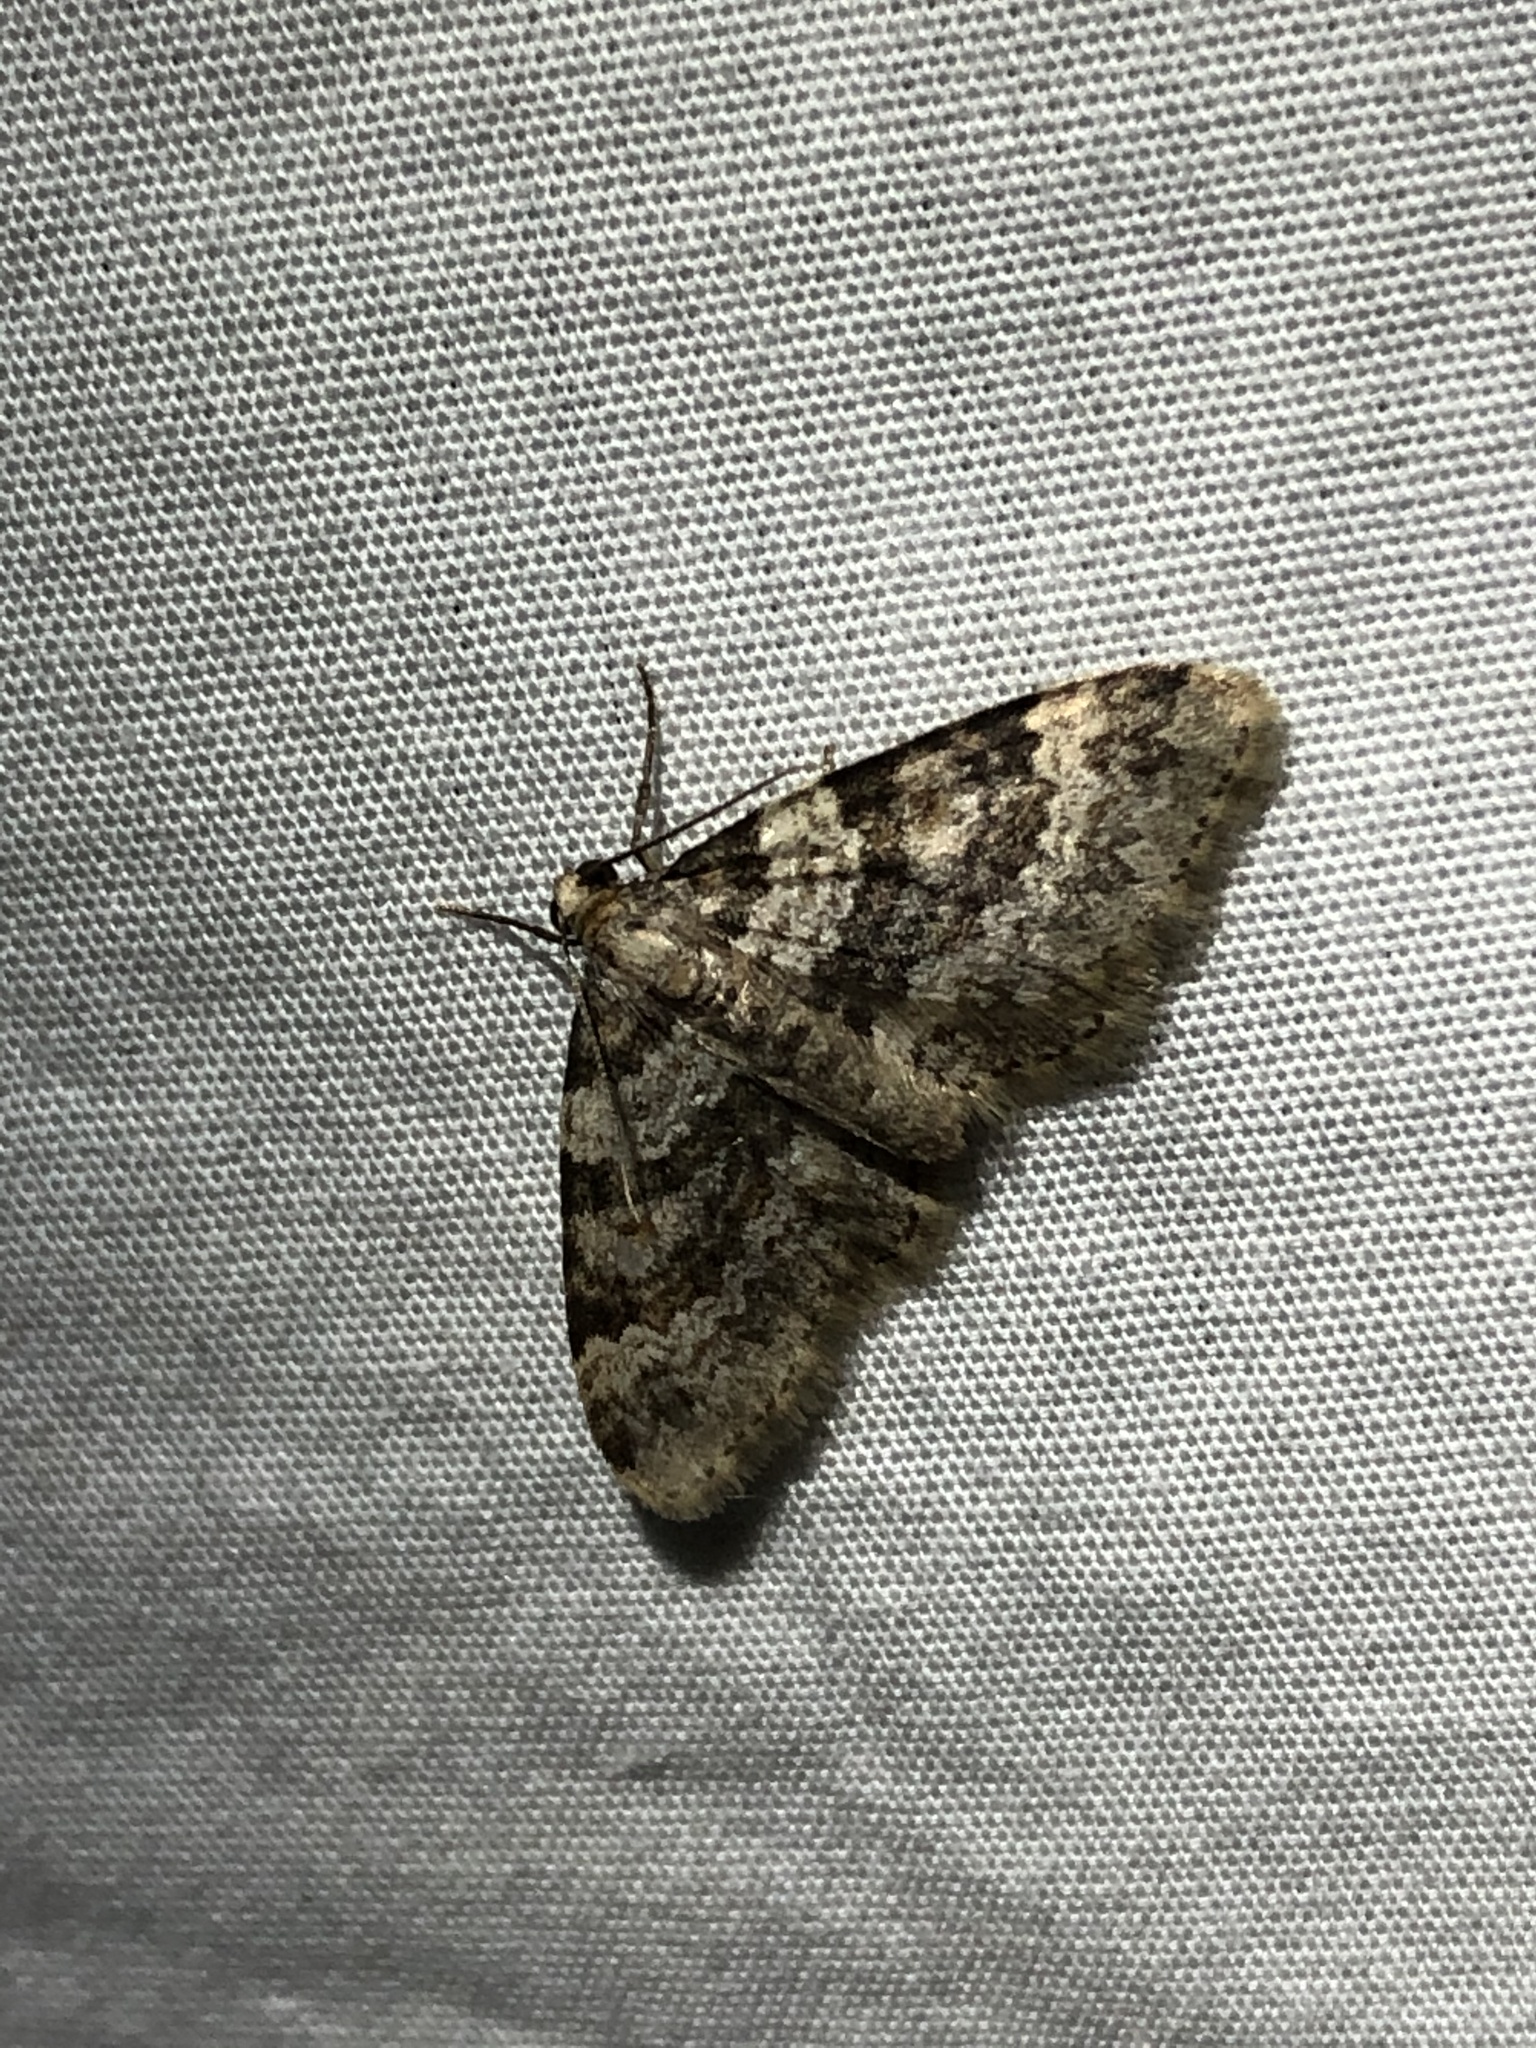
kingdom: Animalia
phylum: Arthropoda
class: Insecta
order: Lepidoptera
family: Geometridae
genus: Zenophleps
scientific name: Zenophleps obscurata
